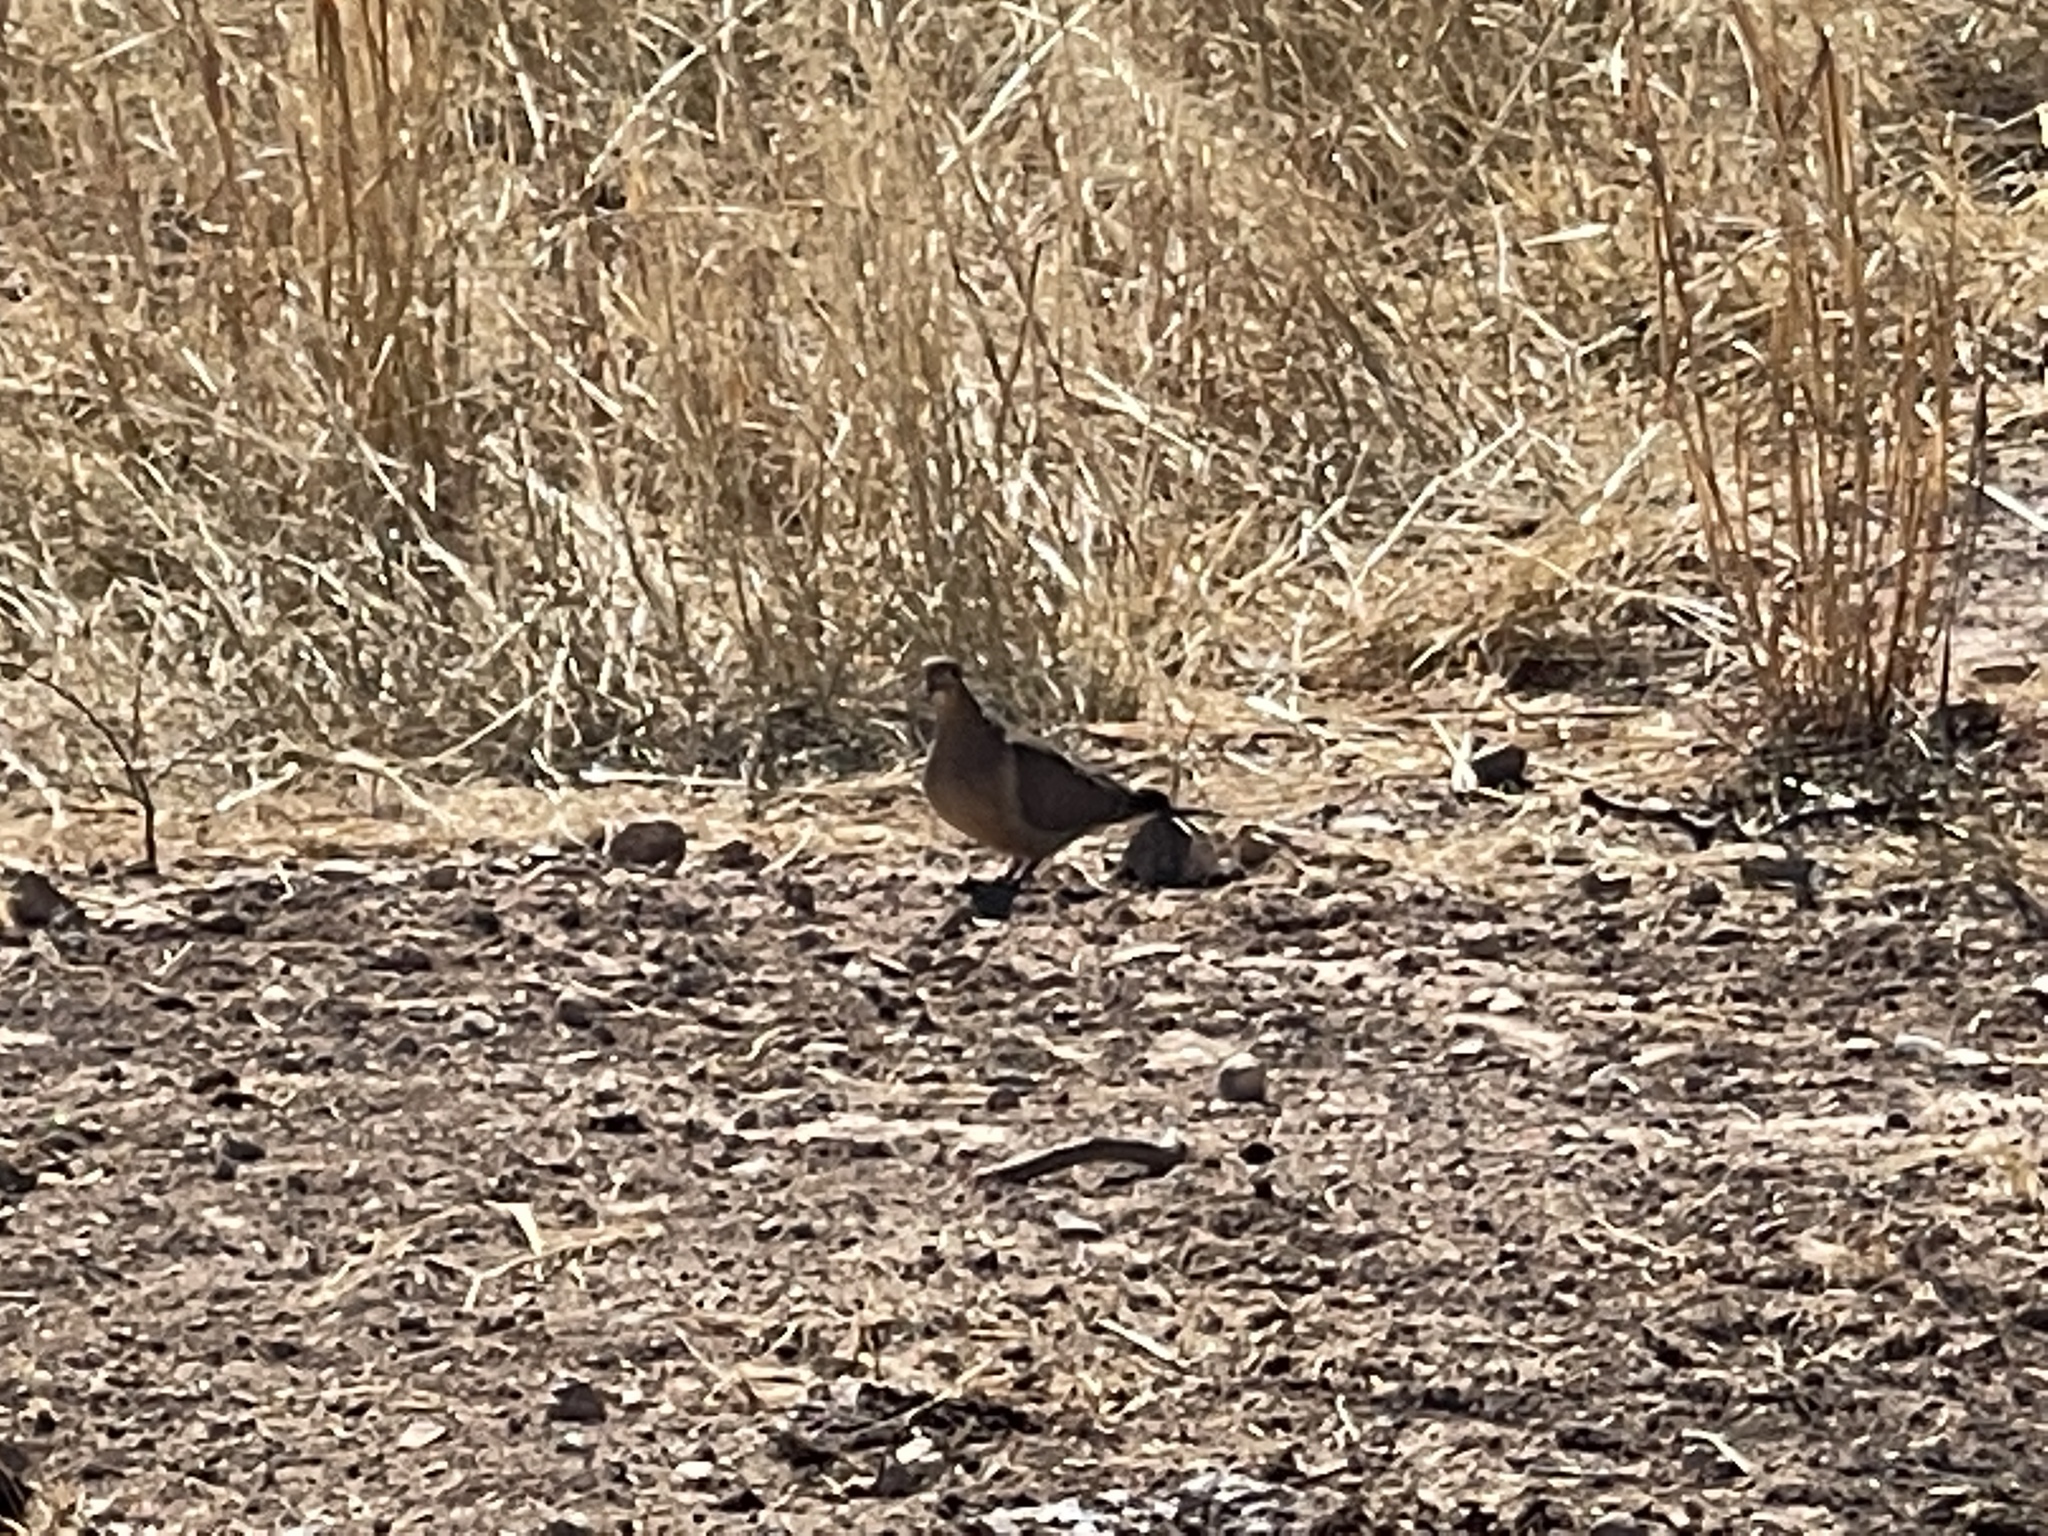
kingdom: Animalia
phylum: Chordata
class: Aves
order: Columbiformes
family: Columbidae
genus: Zenaida
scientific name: Zenaida macroura
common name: Mourning dove
